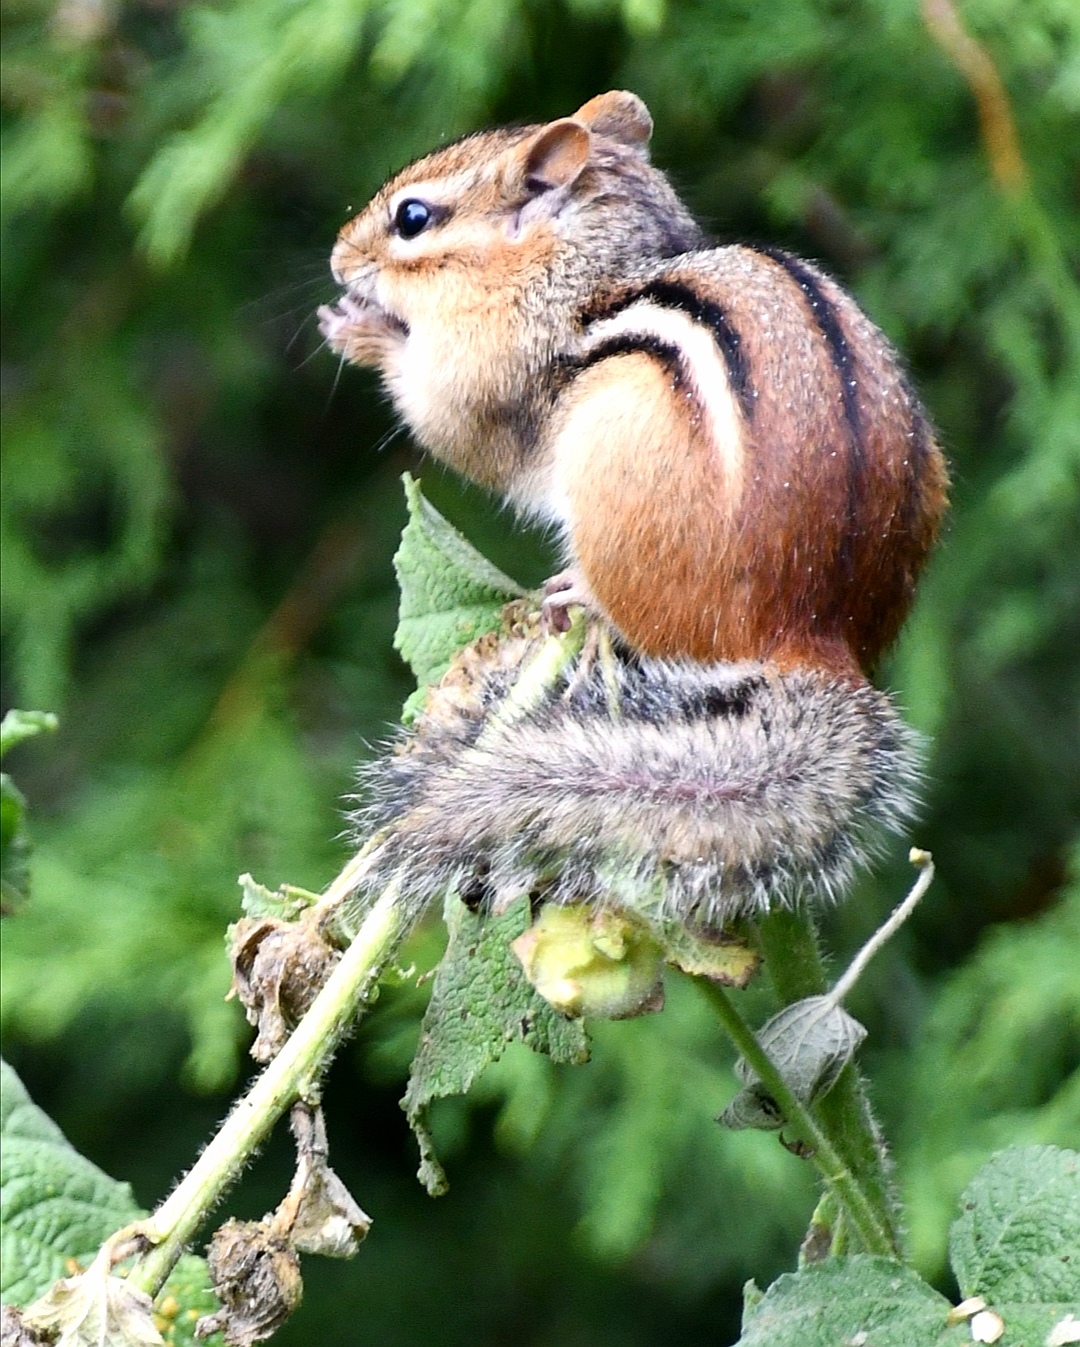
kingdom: Animalia
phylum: Chordata
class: Mammalia
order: Rodentia
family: Sciuridae
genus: Tamias
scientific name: Tamias striatus
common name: Eastern chipmunk
